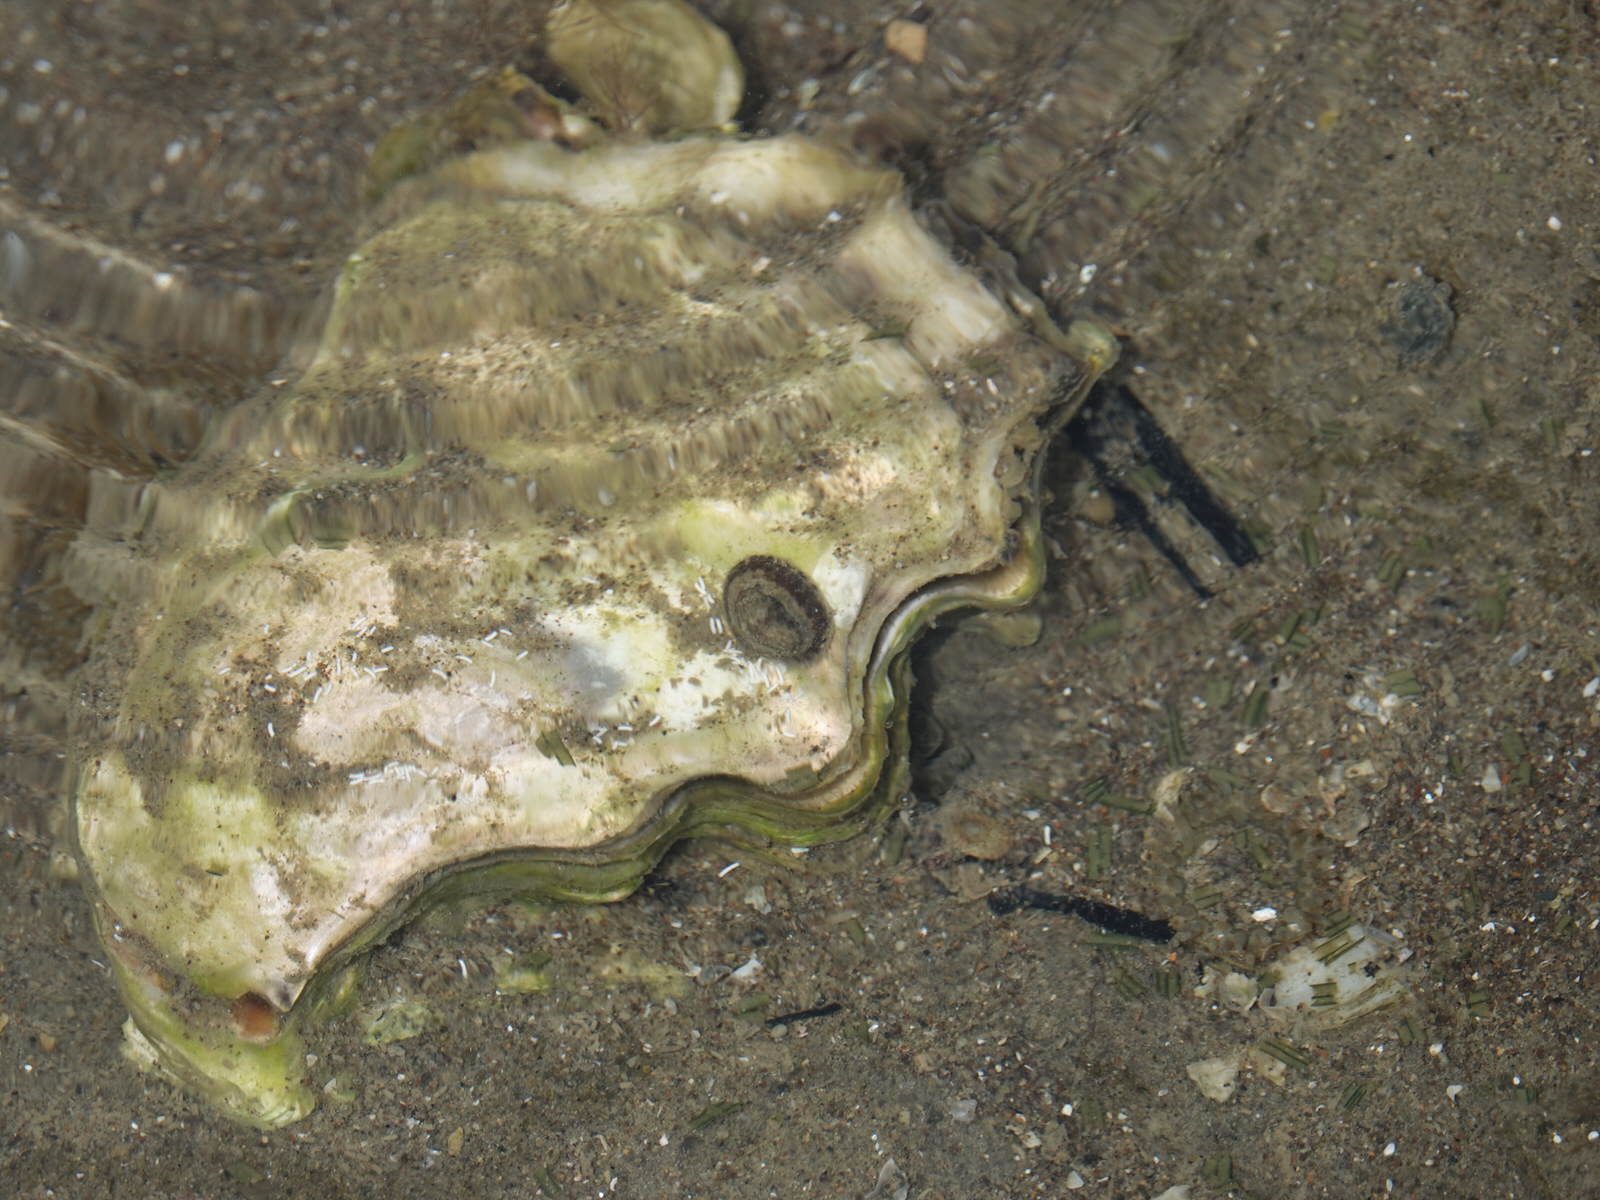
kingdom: Animalia
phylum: Mollusca
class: Gastropoda
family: Lottiidae
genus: Notoacmea
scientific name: Notoacmea potae
